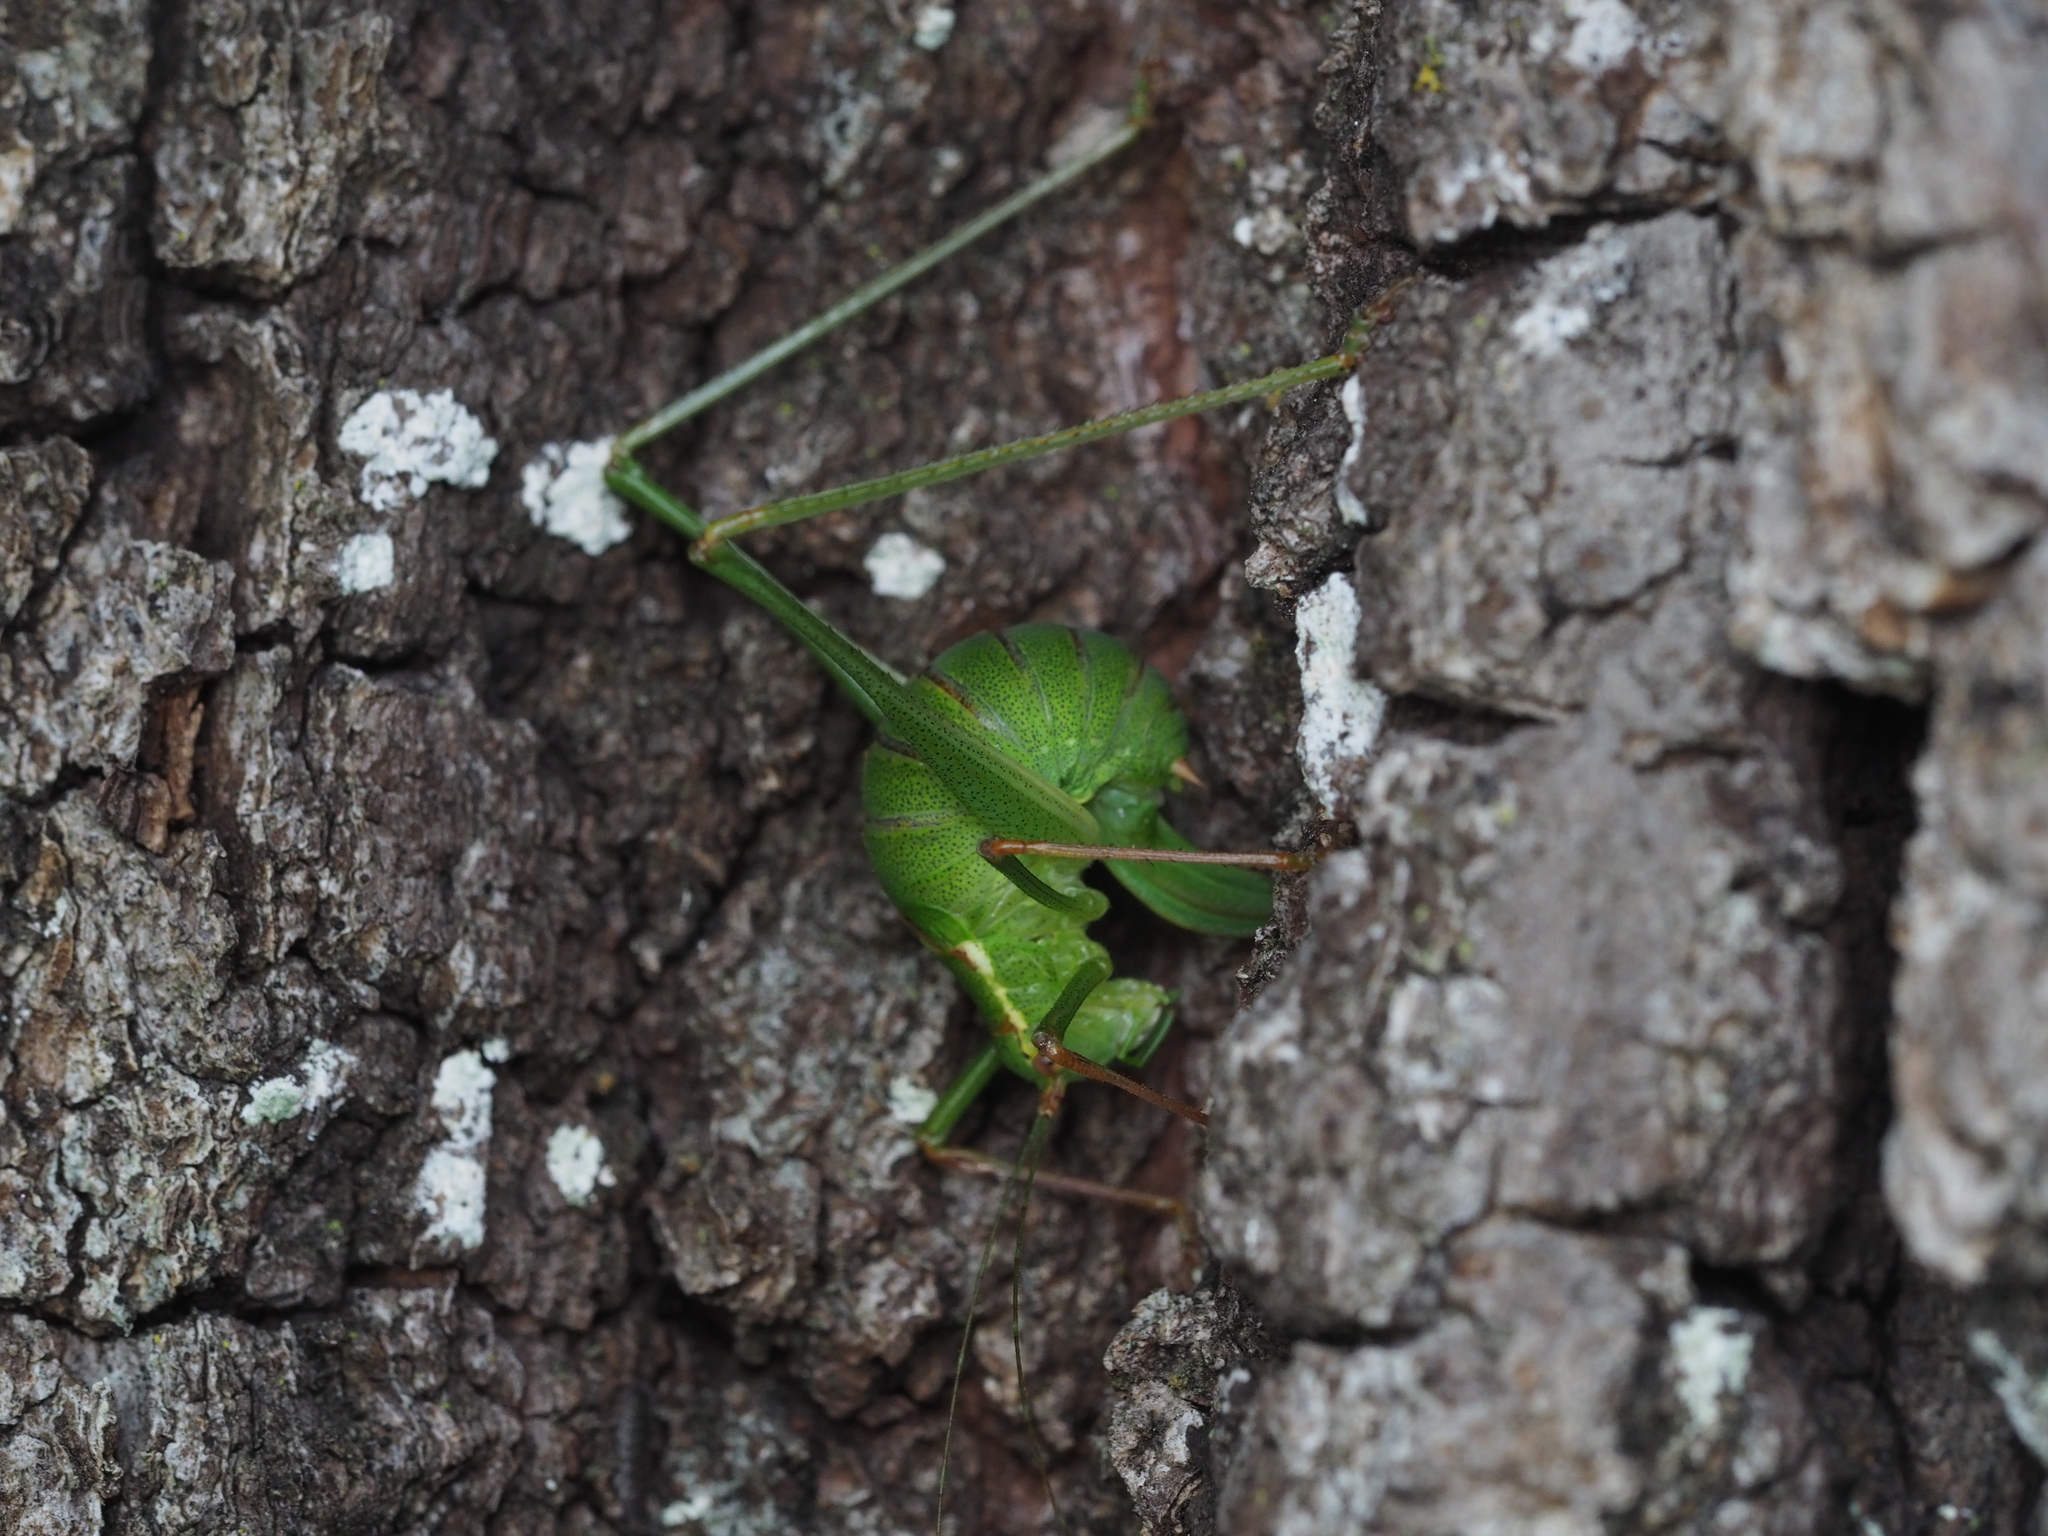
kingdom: Animalia
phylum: Arthropoda
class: Insecta
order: Orthoptera
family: Tettigoniidae
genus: Leptophyes
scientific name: Leptophyes punctatissima
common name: Speckled bush-cricket
